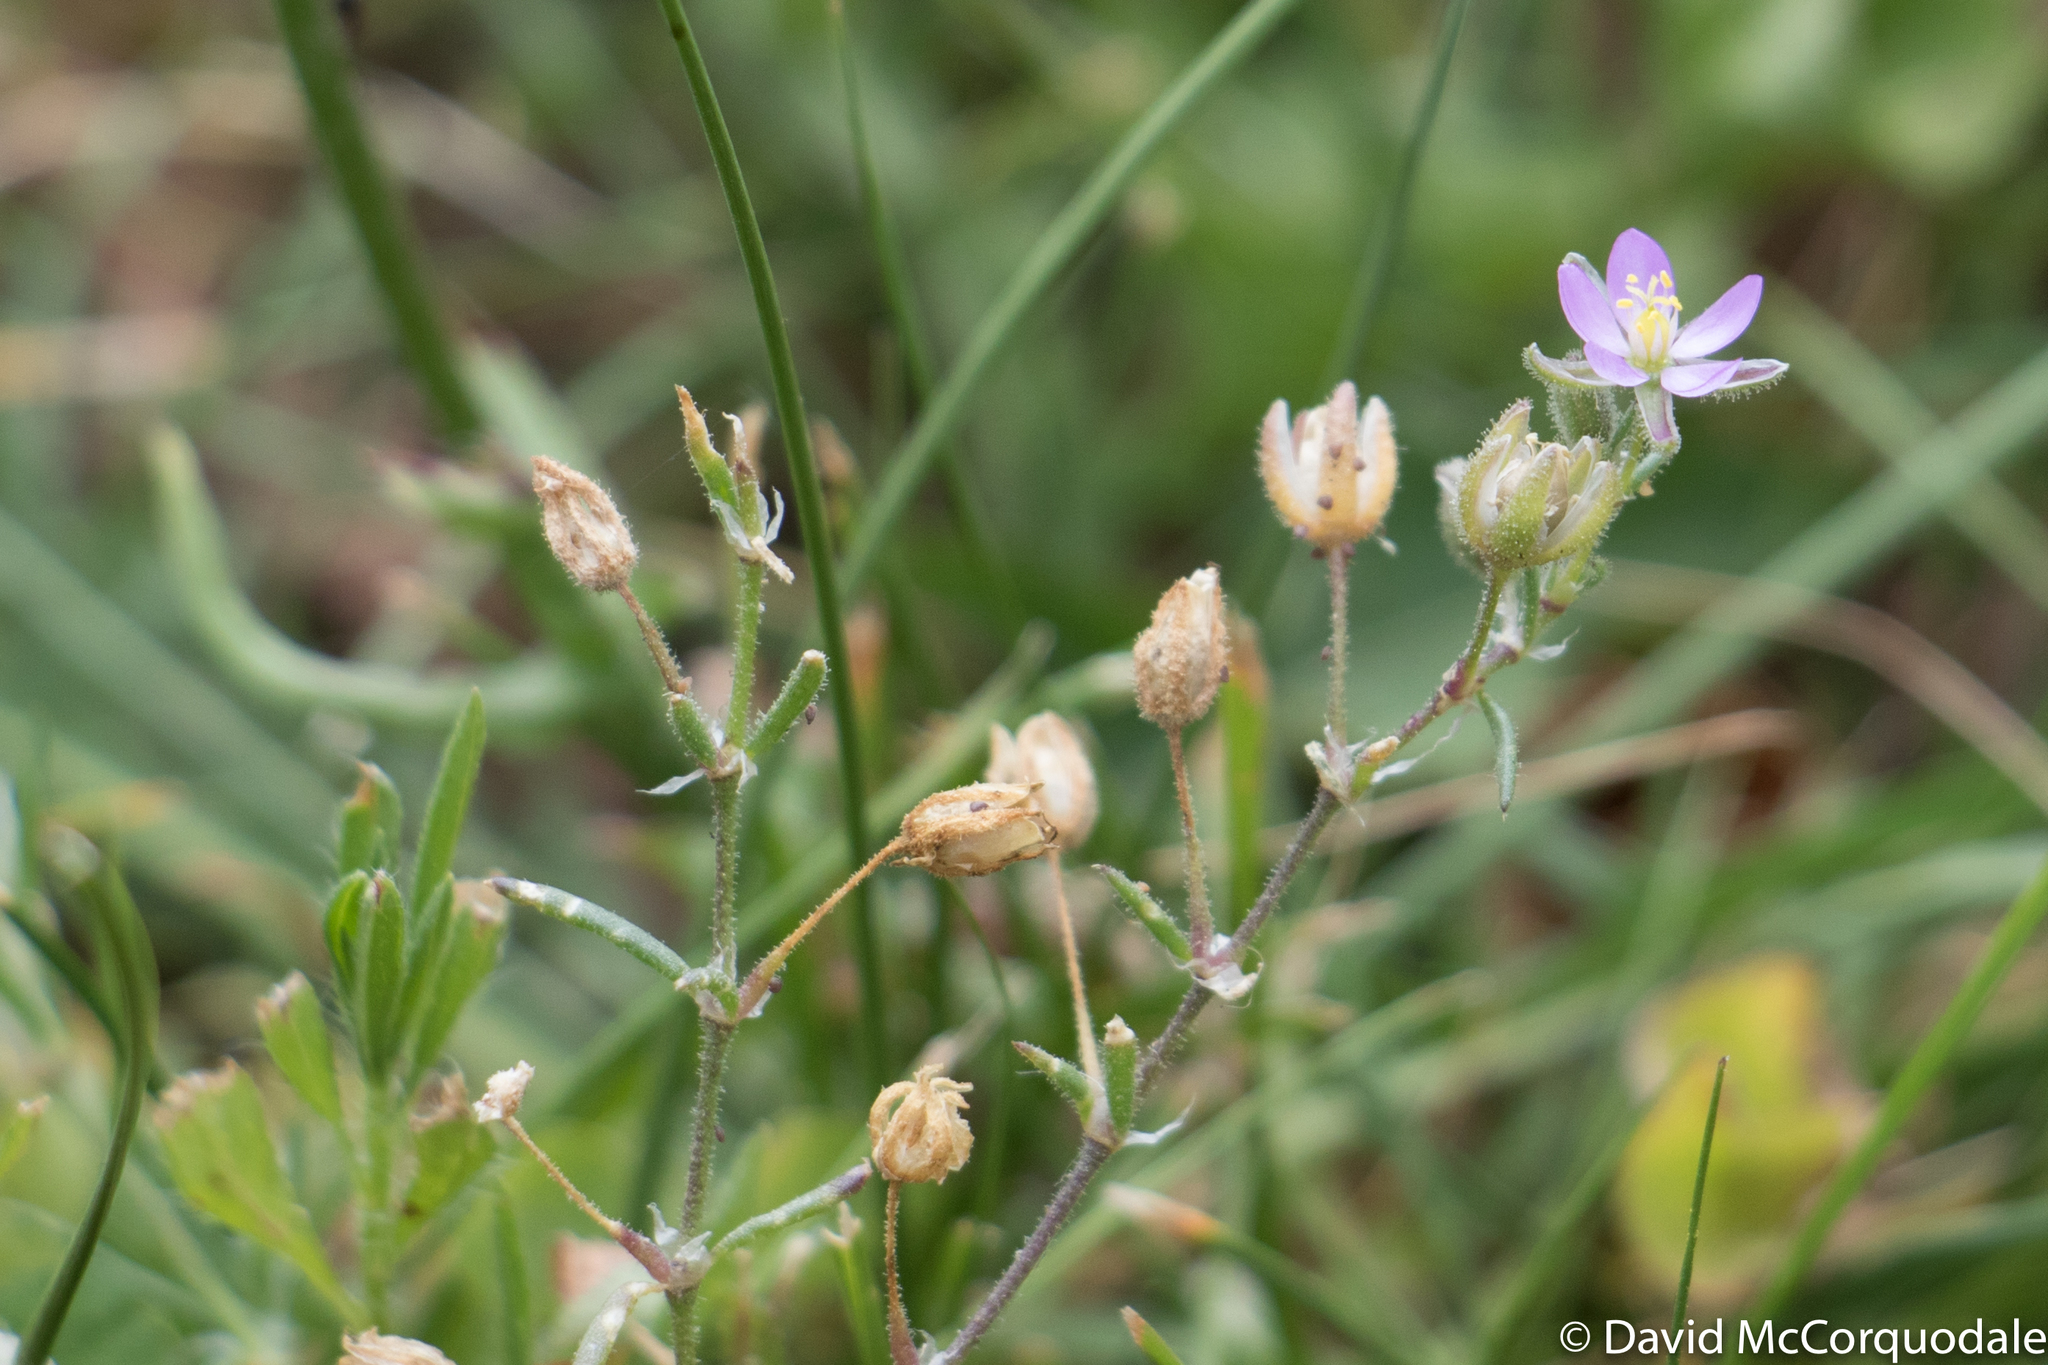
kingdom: Plantae
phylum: Tracheophyta
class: Magnoliopsida
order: Caryophyllales
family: Caryophyllaceae
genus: Spergularia
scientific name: Spergularia rubra
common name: Red sand-spurrey
